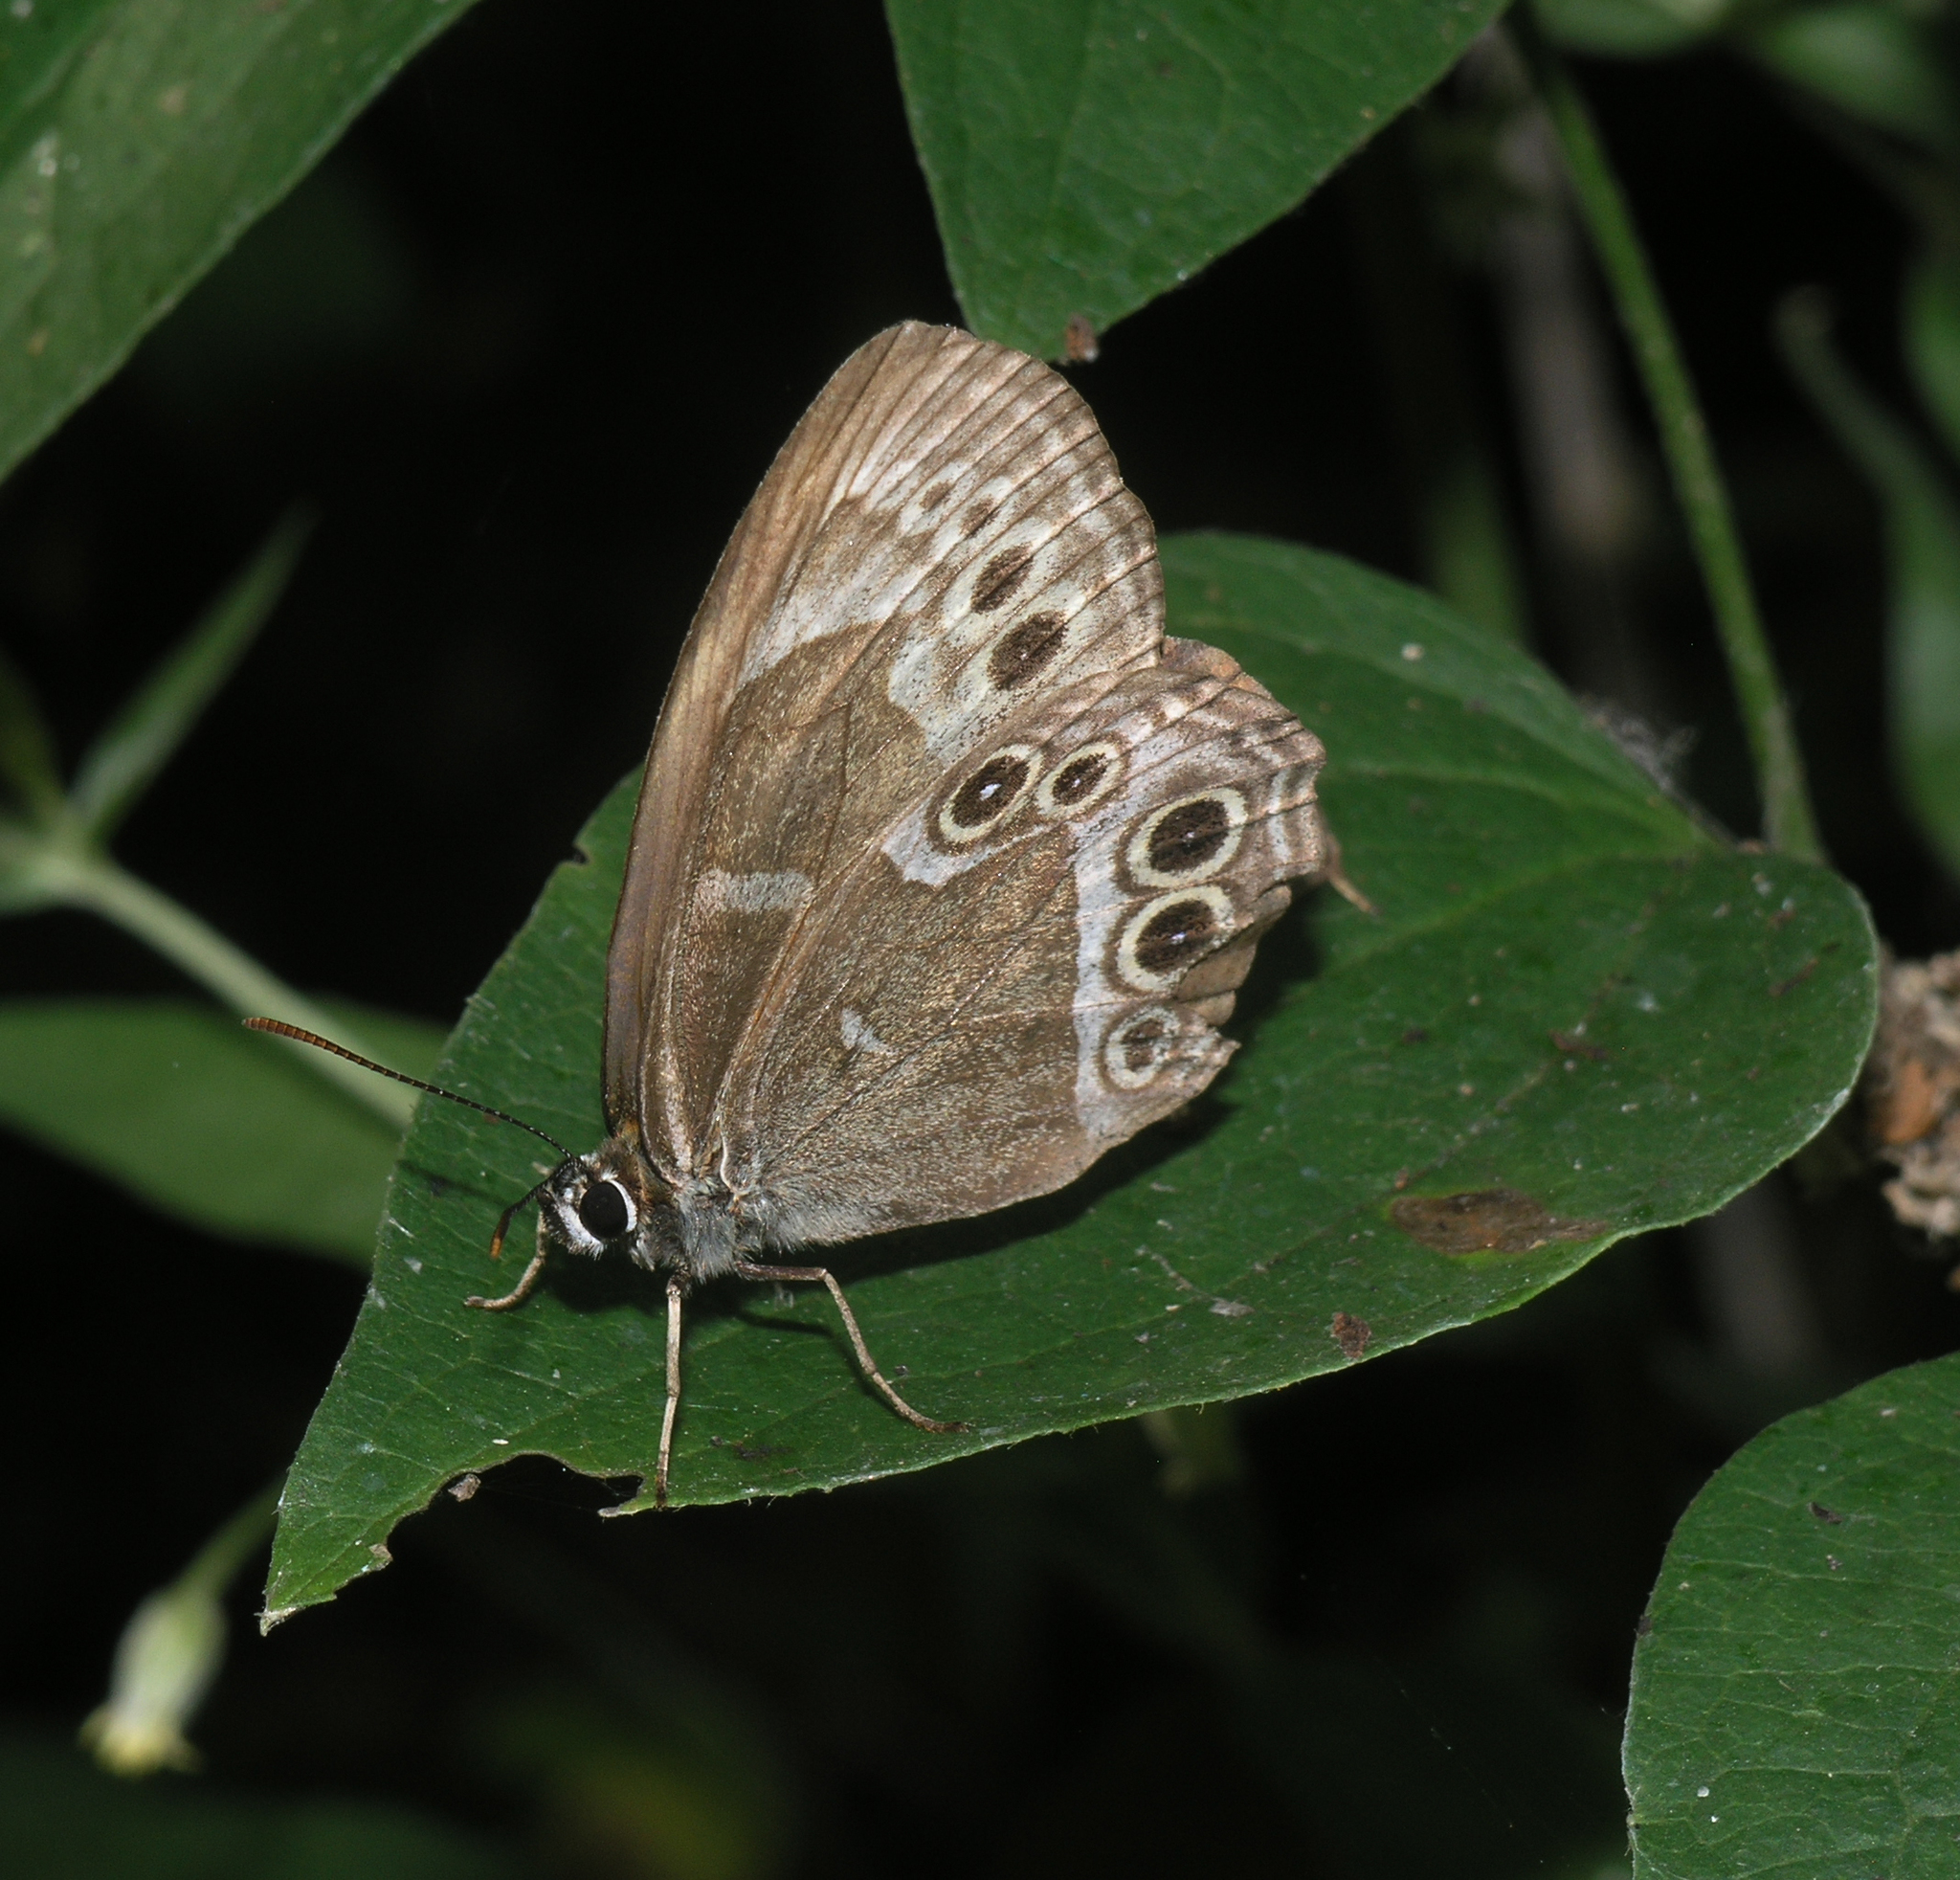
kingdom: Animalia
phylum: Arthropoda
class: Insecta
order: Lepidoptera
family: Nymphalidae
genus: Pararge
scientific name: Pararge Lopinga achine
